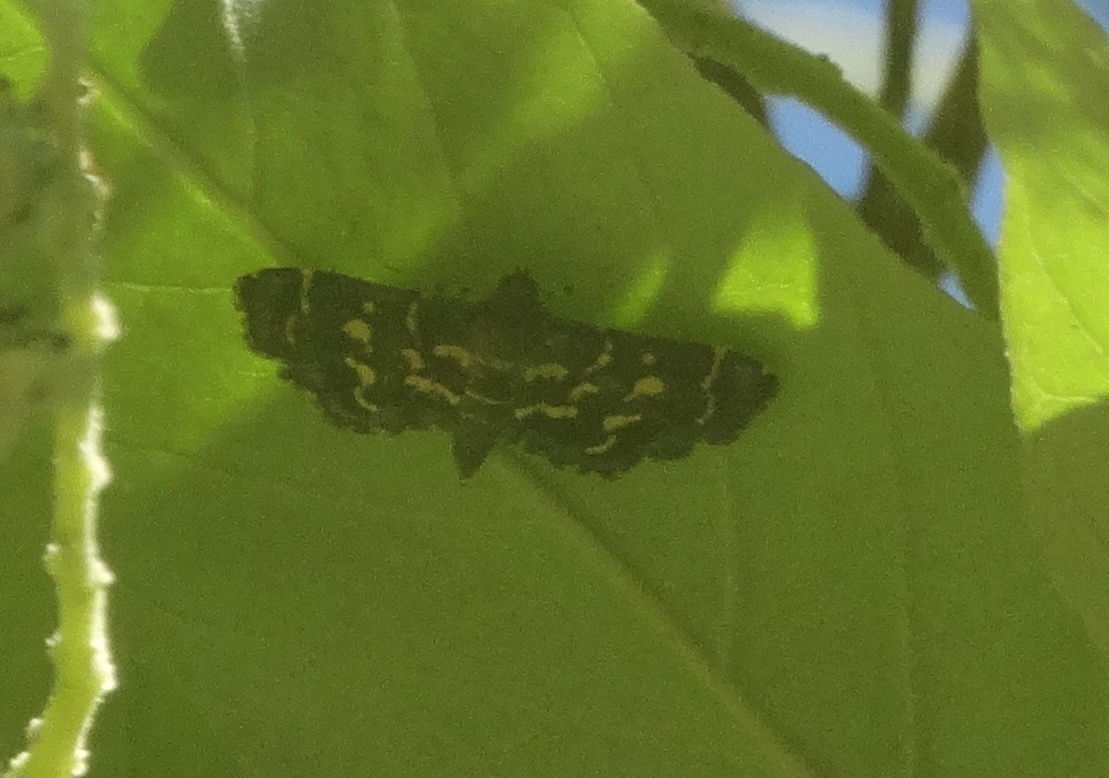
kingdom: Animalia
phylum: Arthropoda
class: Insecta
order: Lepidoptera
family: Crambidae
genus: Eurrhyparodes
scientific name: Eurrhyparodes splendens
